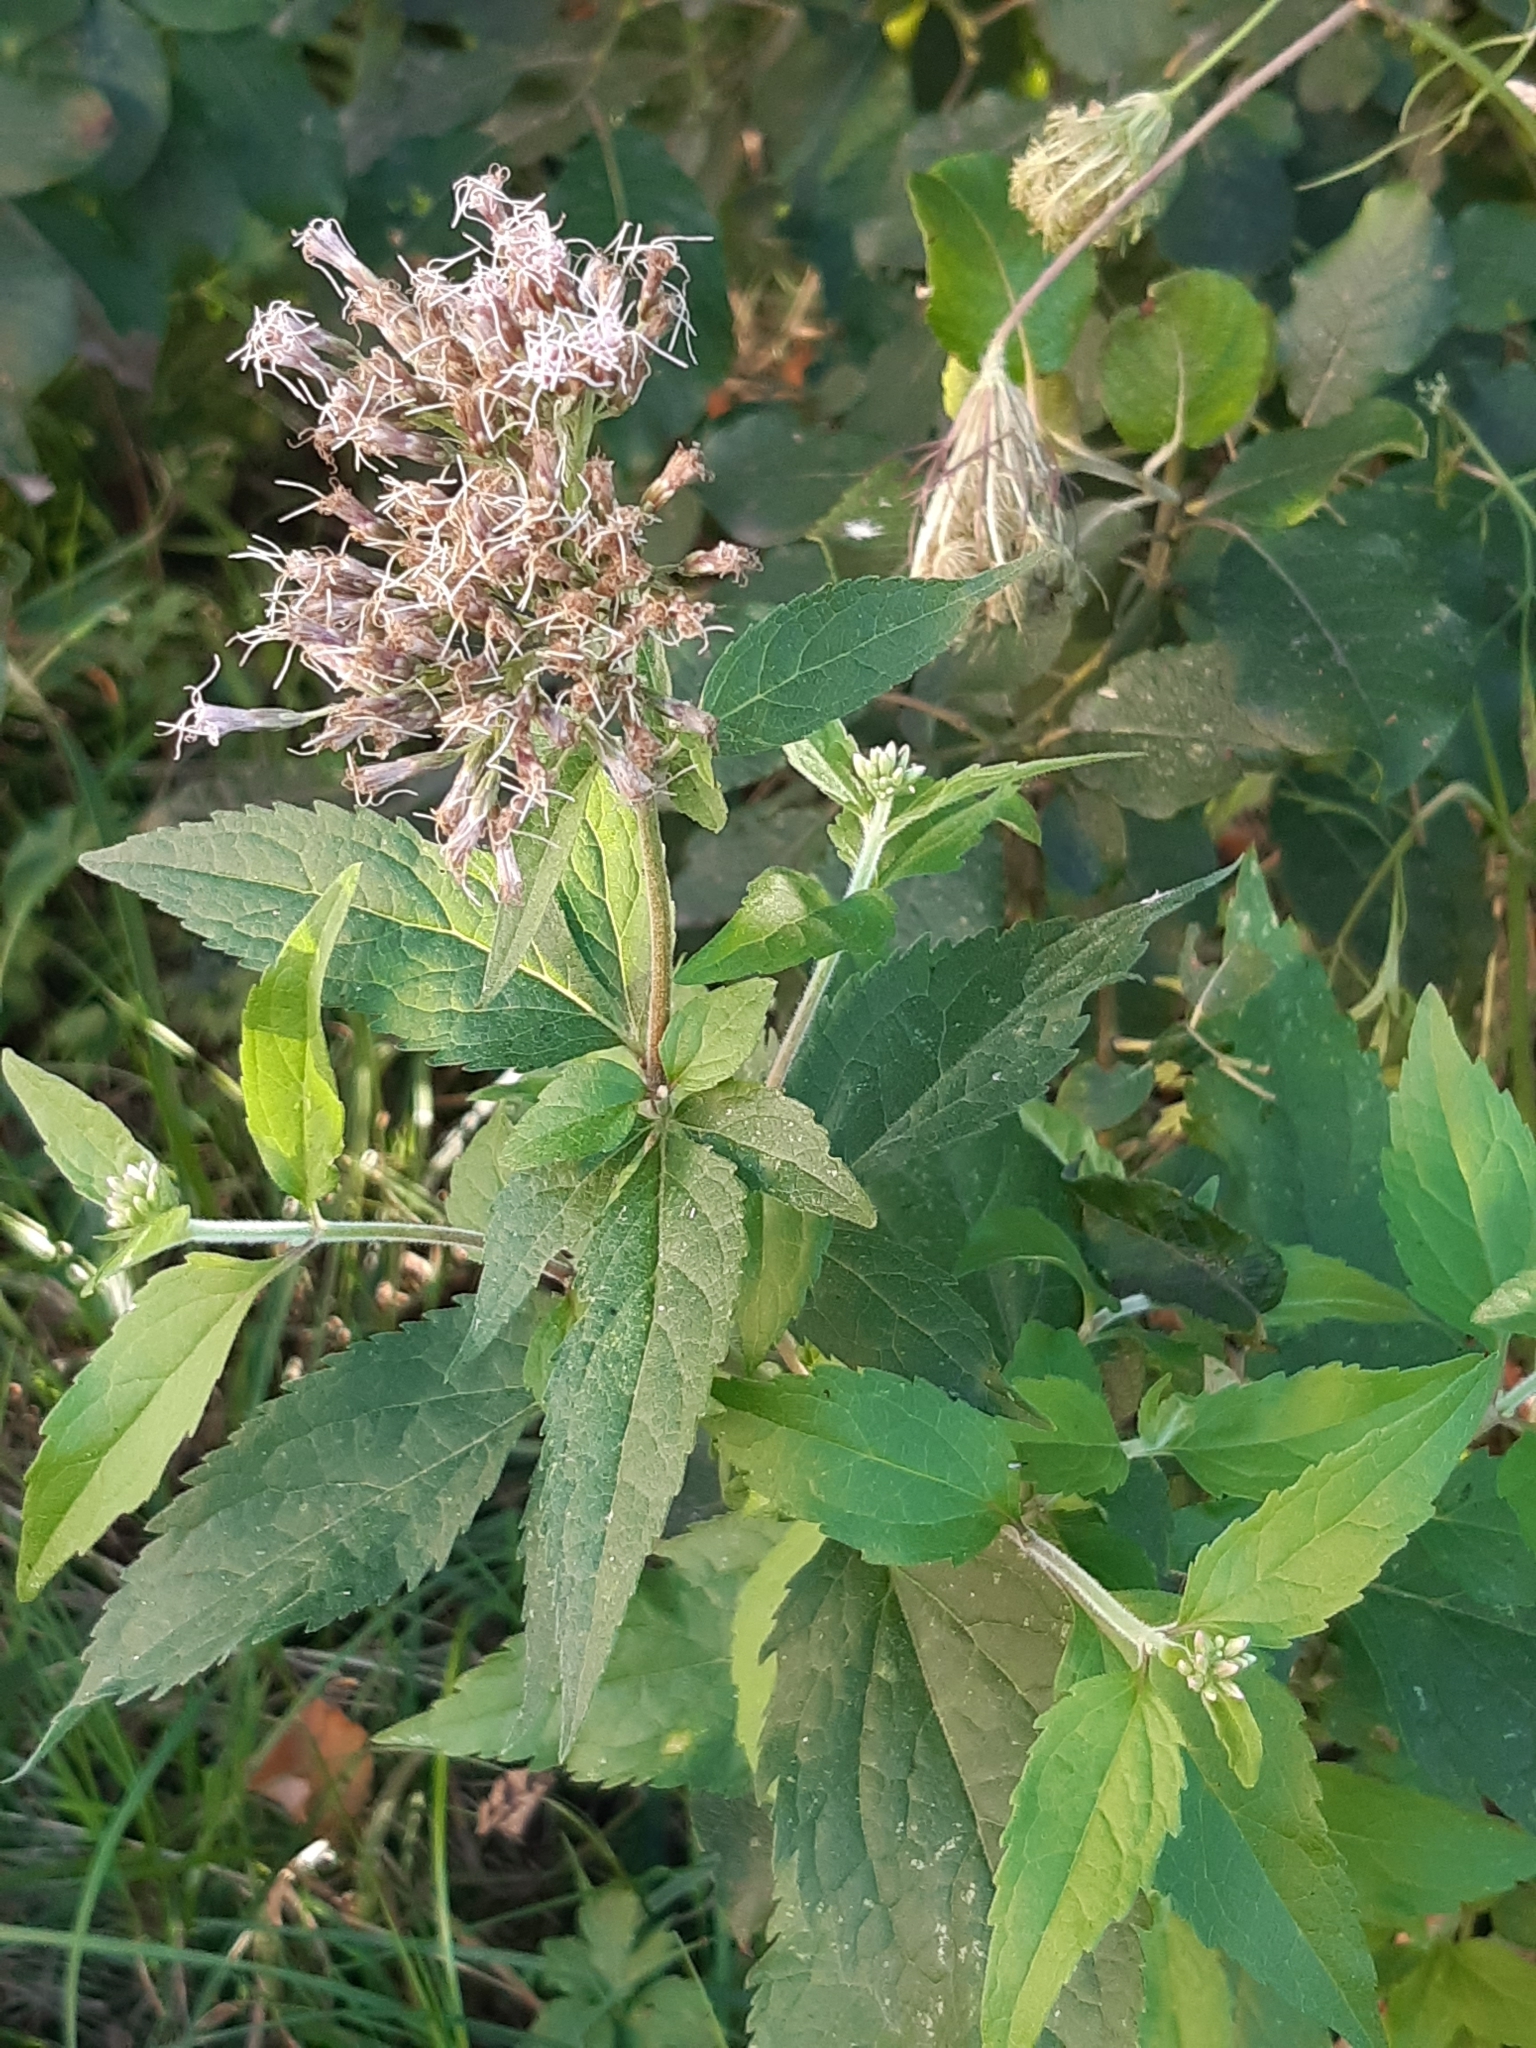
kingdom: Plantae
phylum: Tracheophyta
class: Magnoliopsida
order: Asterales
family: Asteraceae
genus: Eupatorium
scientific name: Eupatorium cannabinum
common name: Hemp-agrimony
